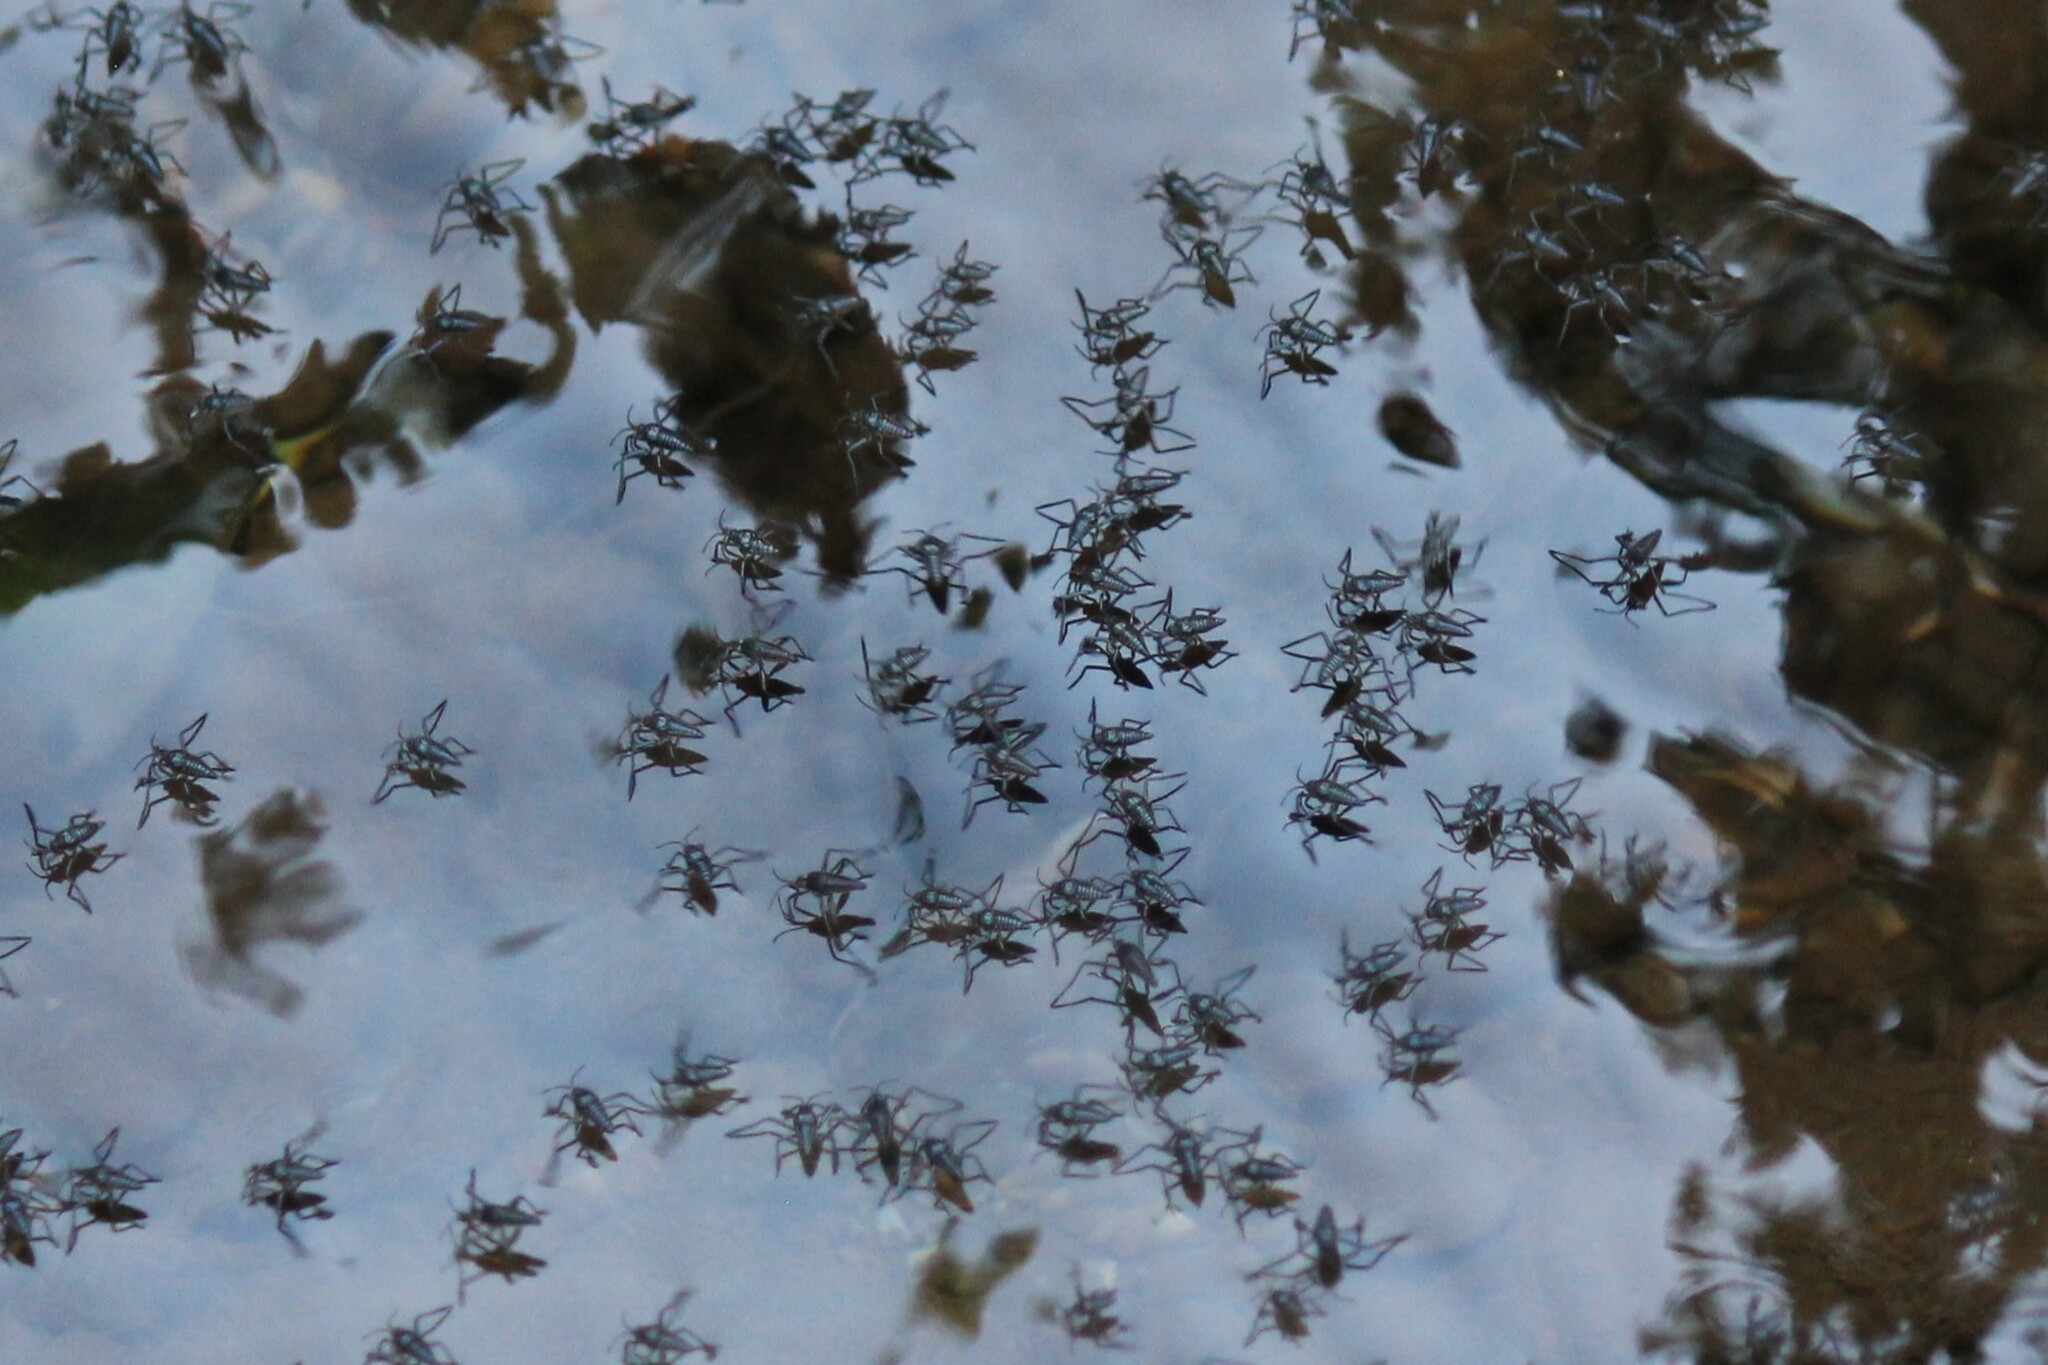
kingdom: Animalia
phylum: Arthropoda
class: Insecta
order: Hemiptera
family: Veliidae
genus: Rhagovelia
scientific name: Rhagovelia distincta
